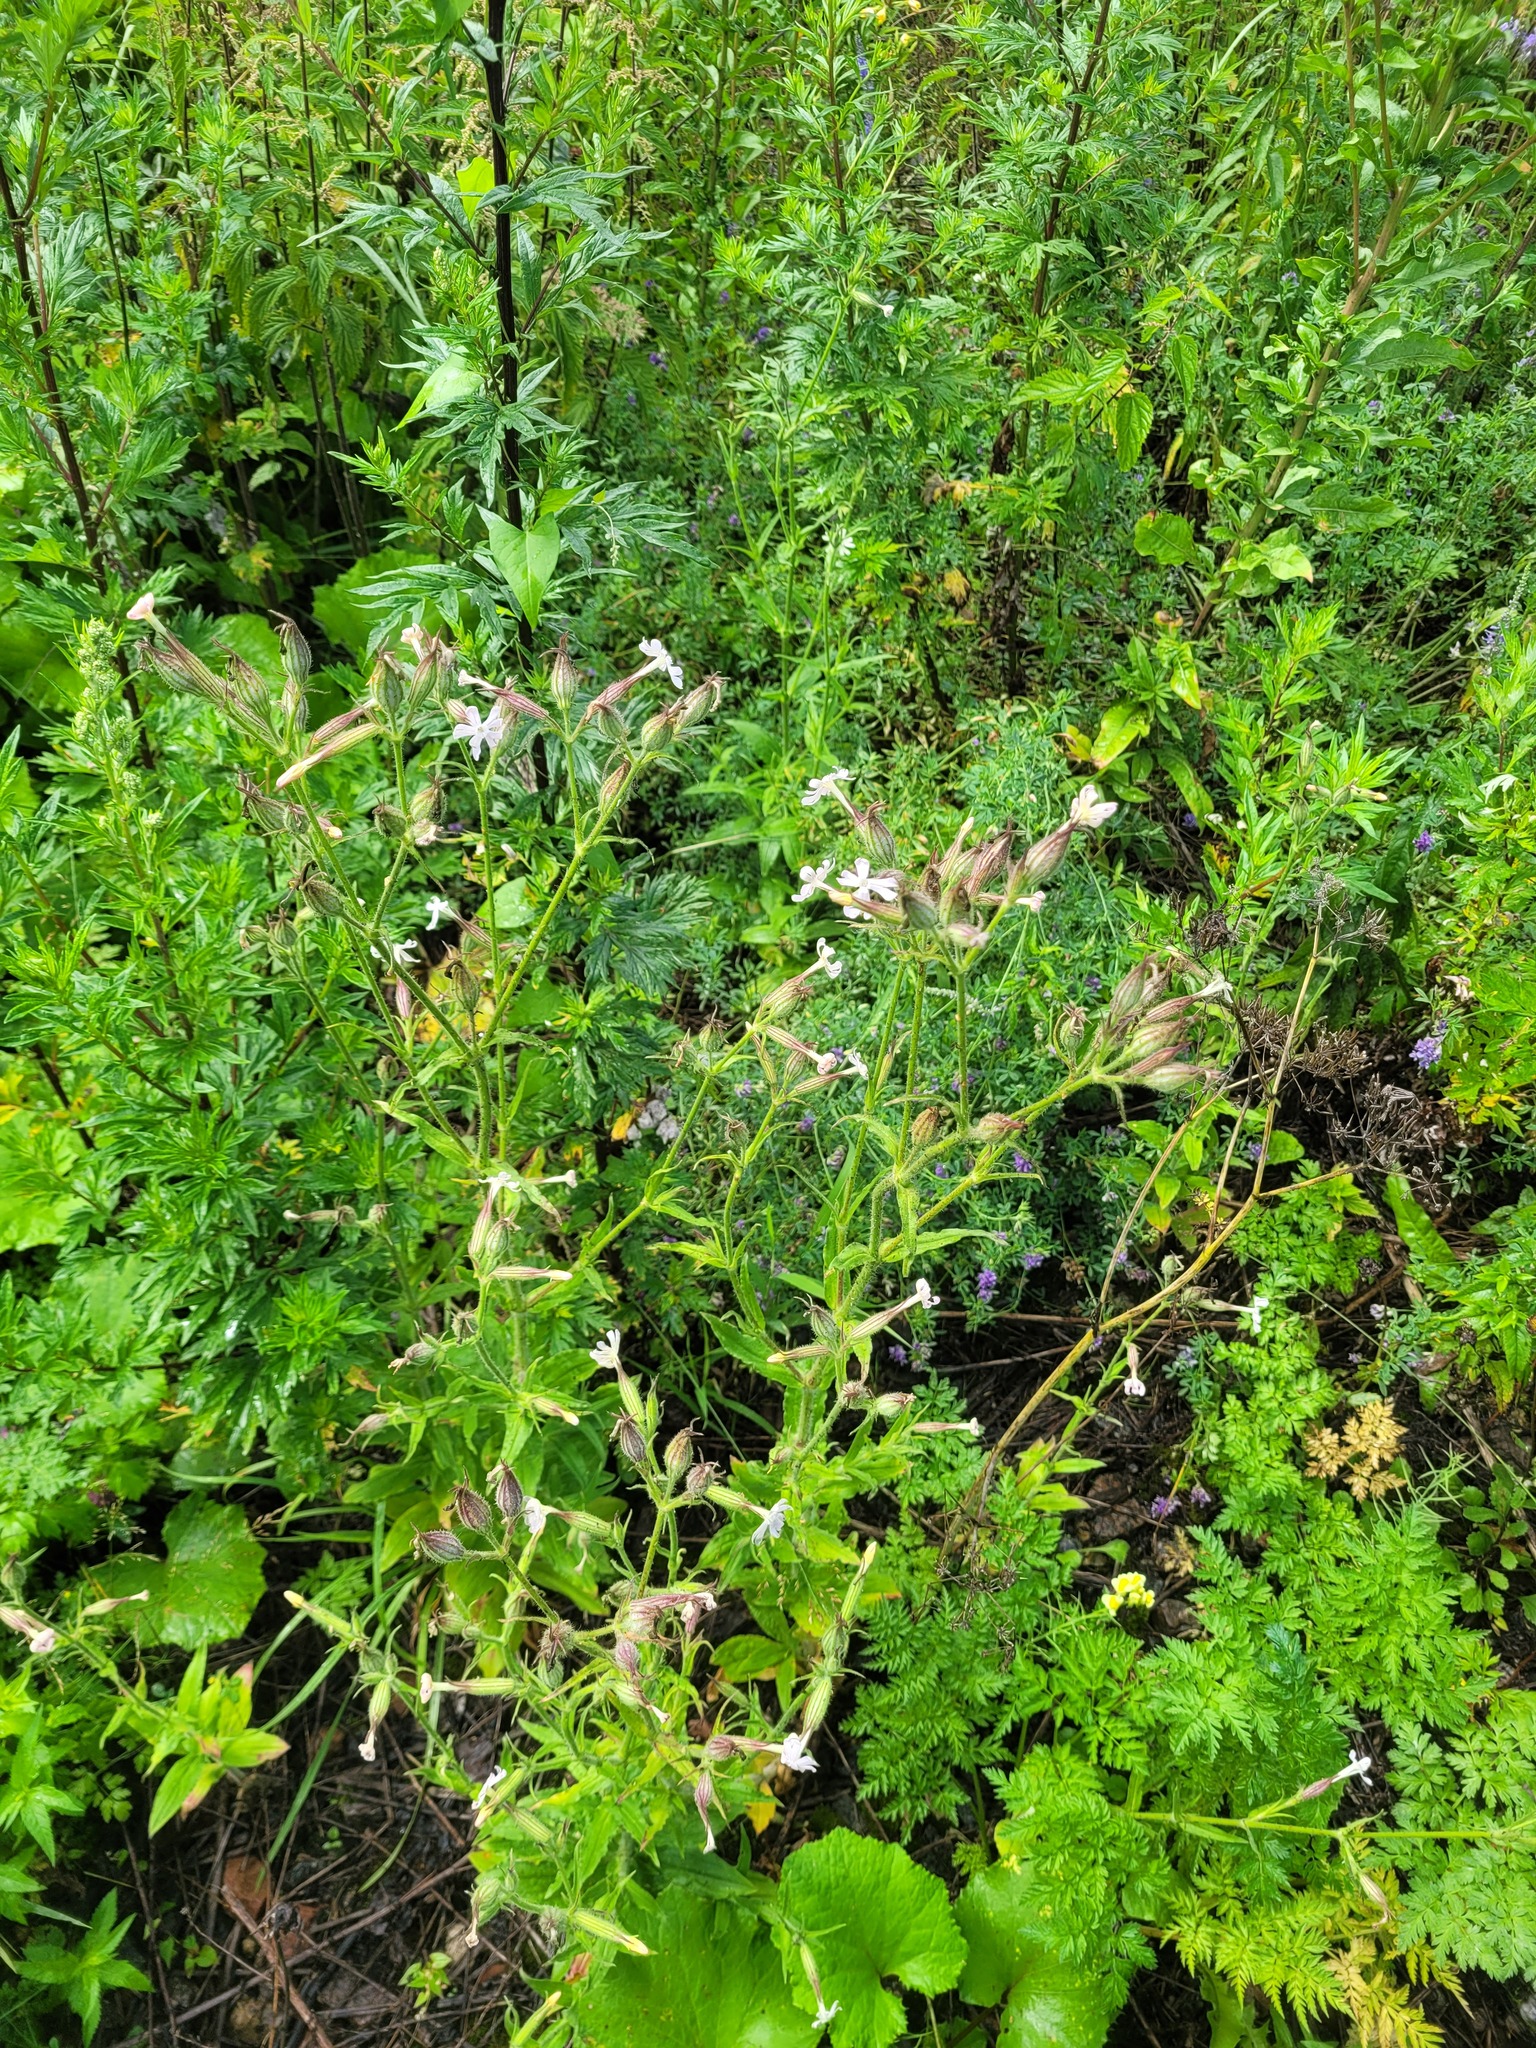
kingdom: Plantae
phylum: Tracheophyta
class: Magnoliopsida
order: Caryophyllales
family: Caryophyllaceae
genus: Silene
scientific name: Silene noctiflora
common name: Night-flowering catchfly
